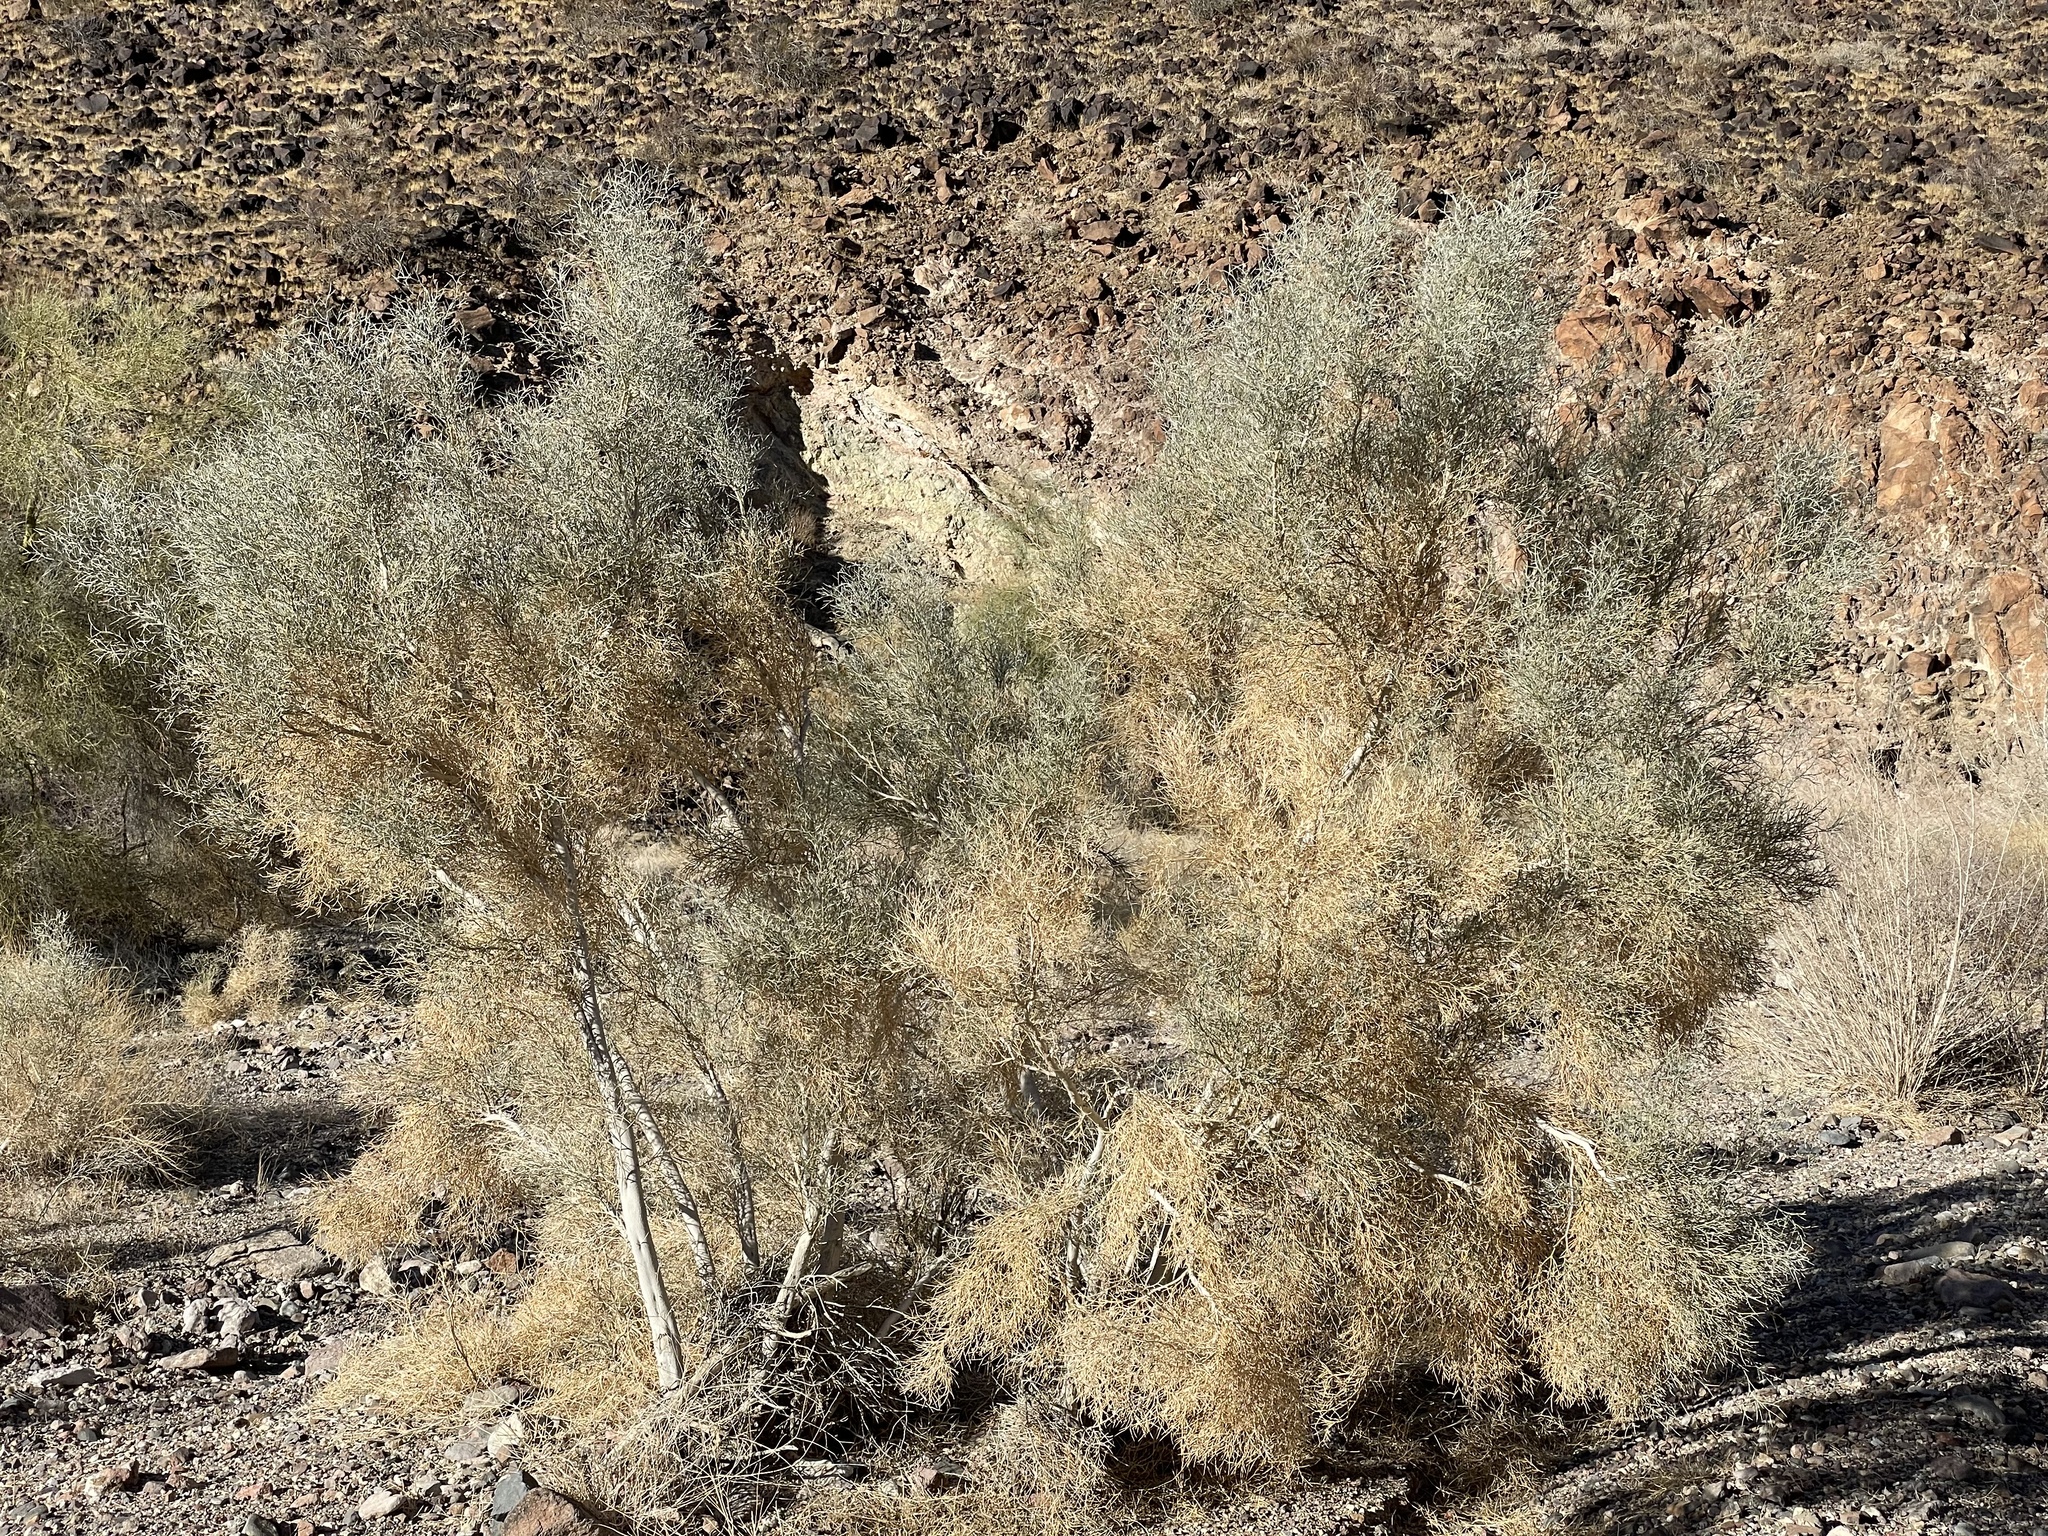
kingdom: Plantae
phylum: Tracheophyta
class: Magnoliopsida
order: Fabales
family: Fabaceae
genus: Psorothamnus
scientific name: Psorothamnus spinosus
